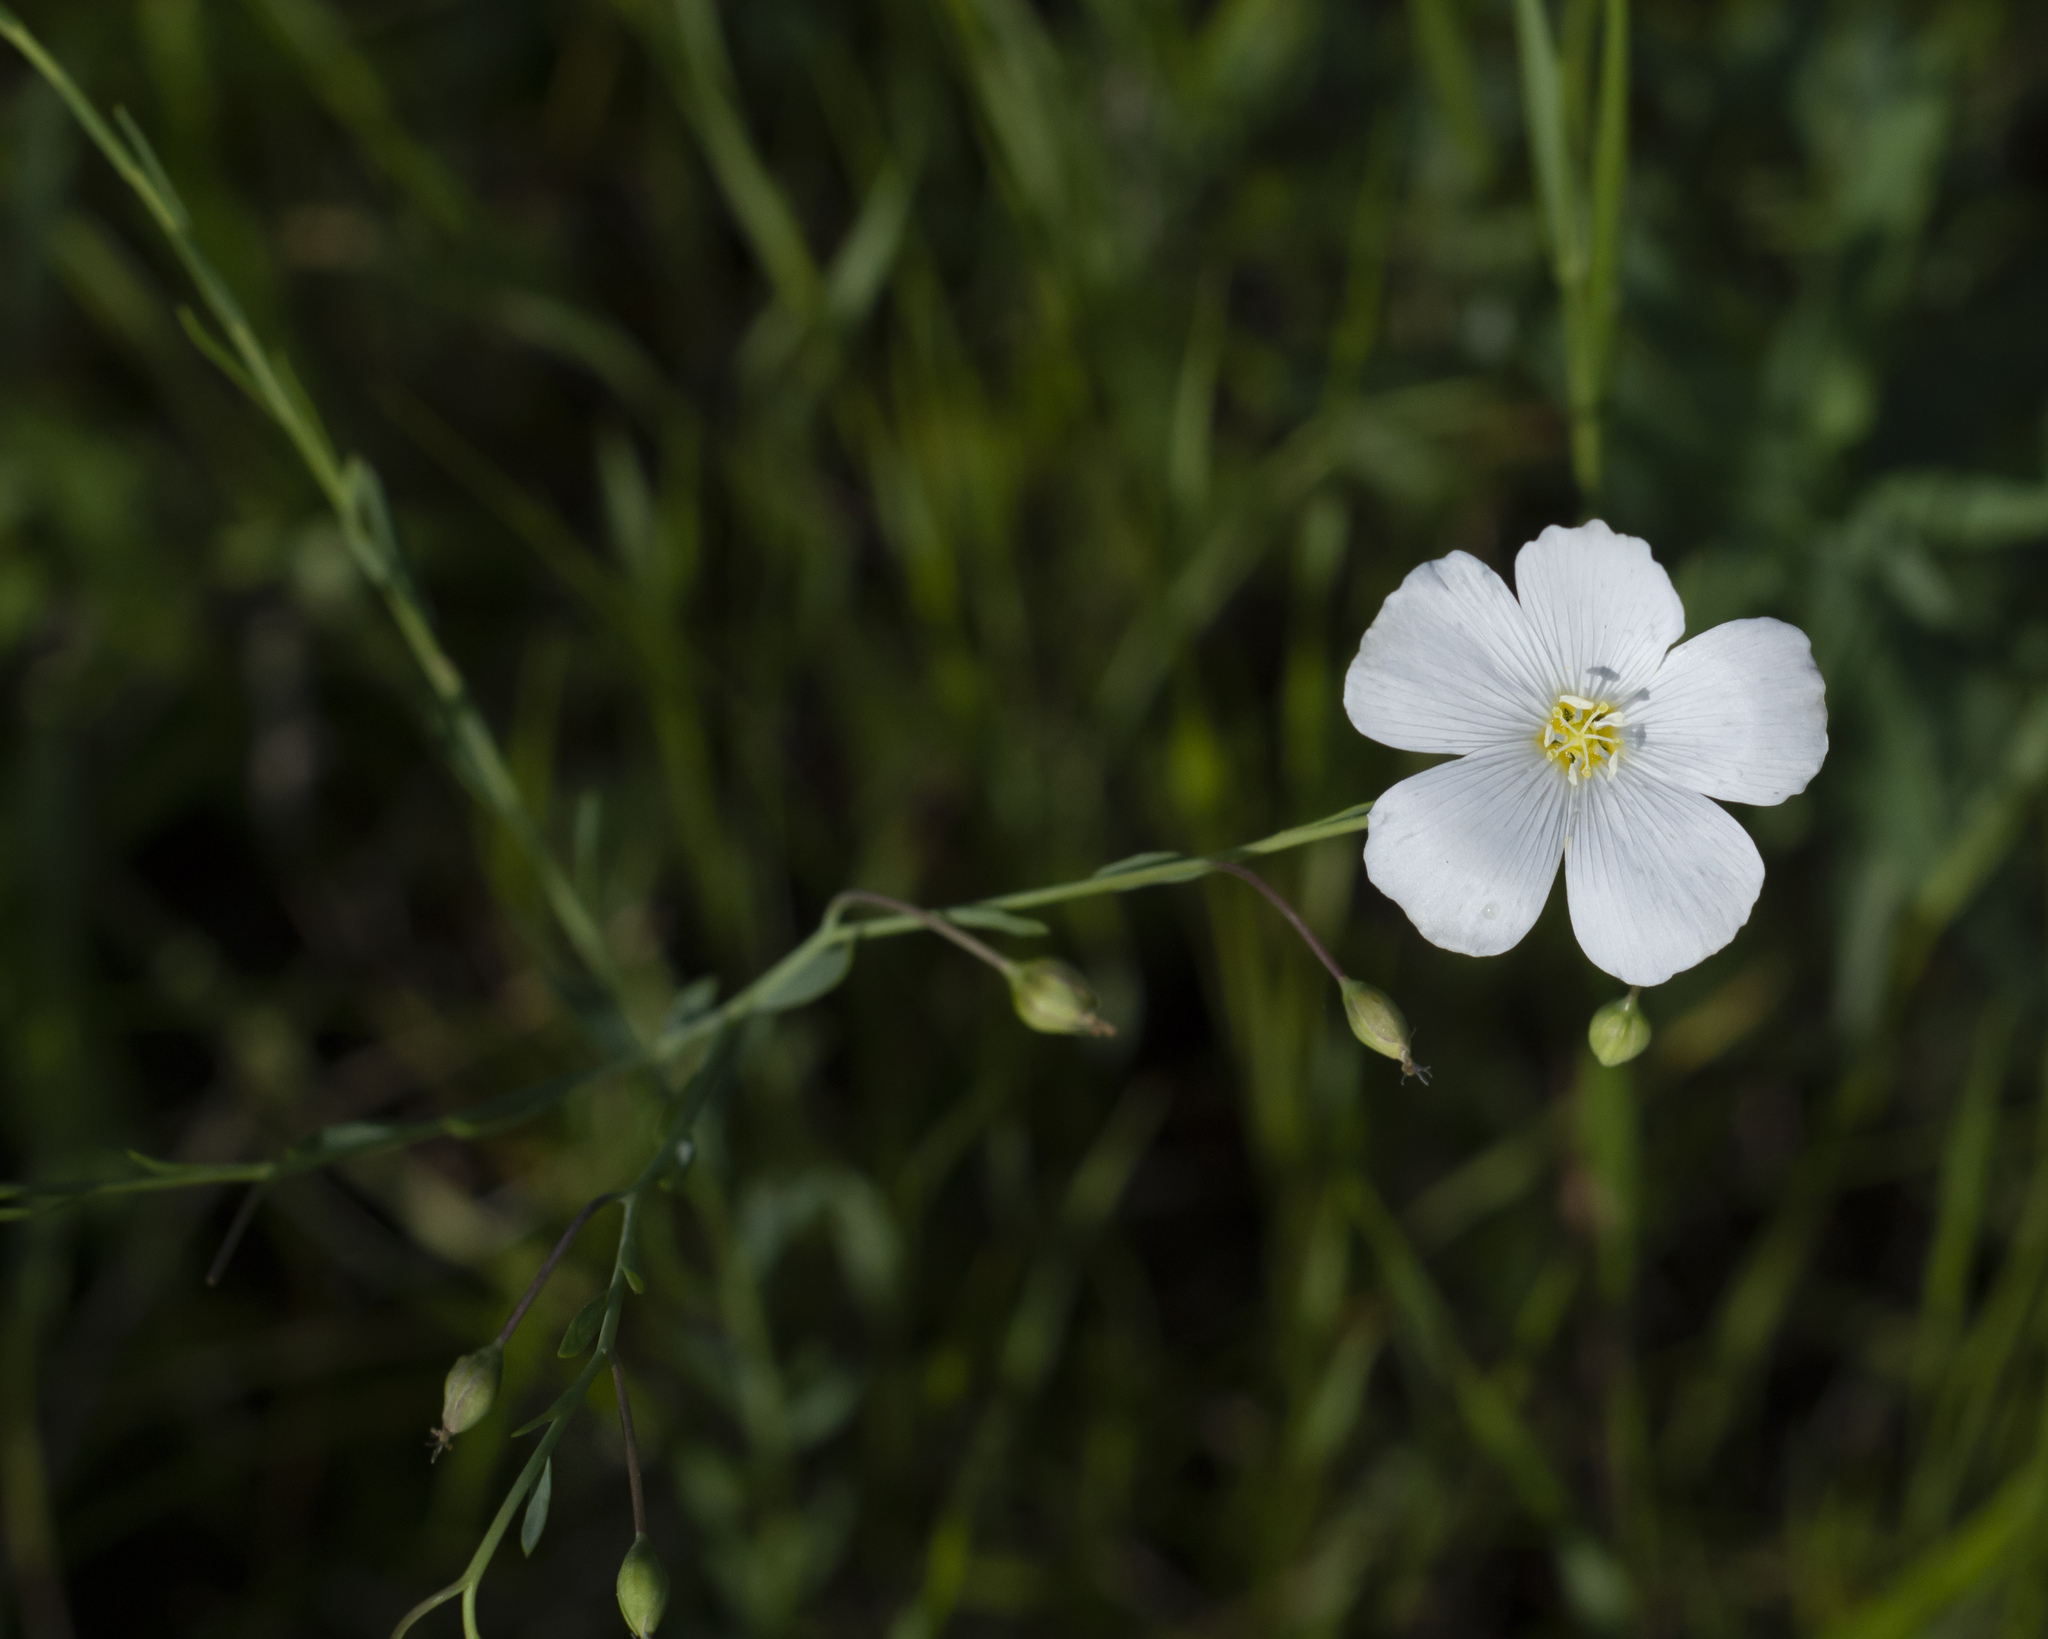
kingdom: Plantae
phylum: Tracheophyta
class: Magnoliopsida
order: Malpighiales
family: Linaceae
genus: Linum
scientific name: Linum usitatissimum
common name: Flax
